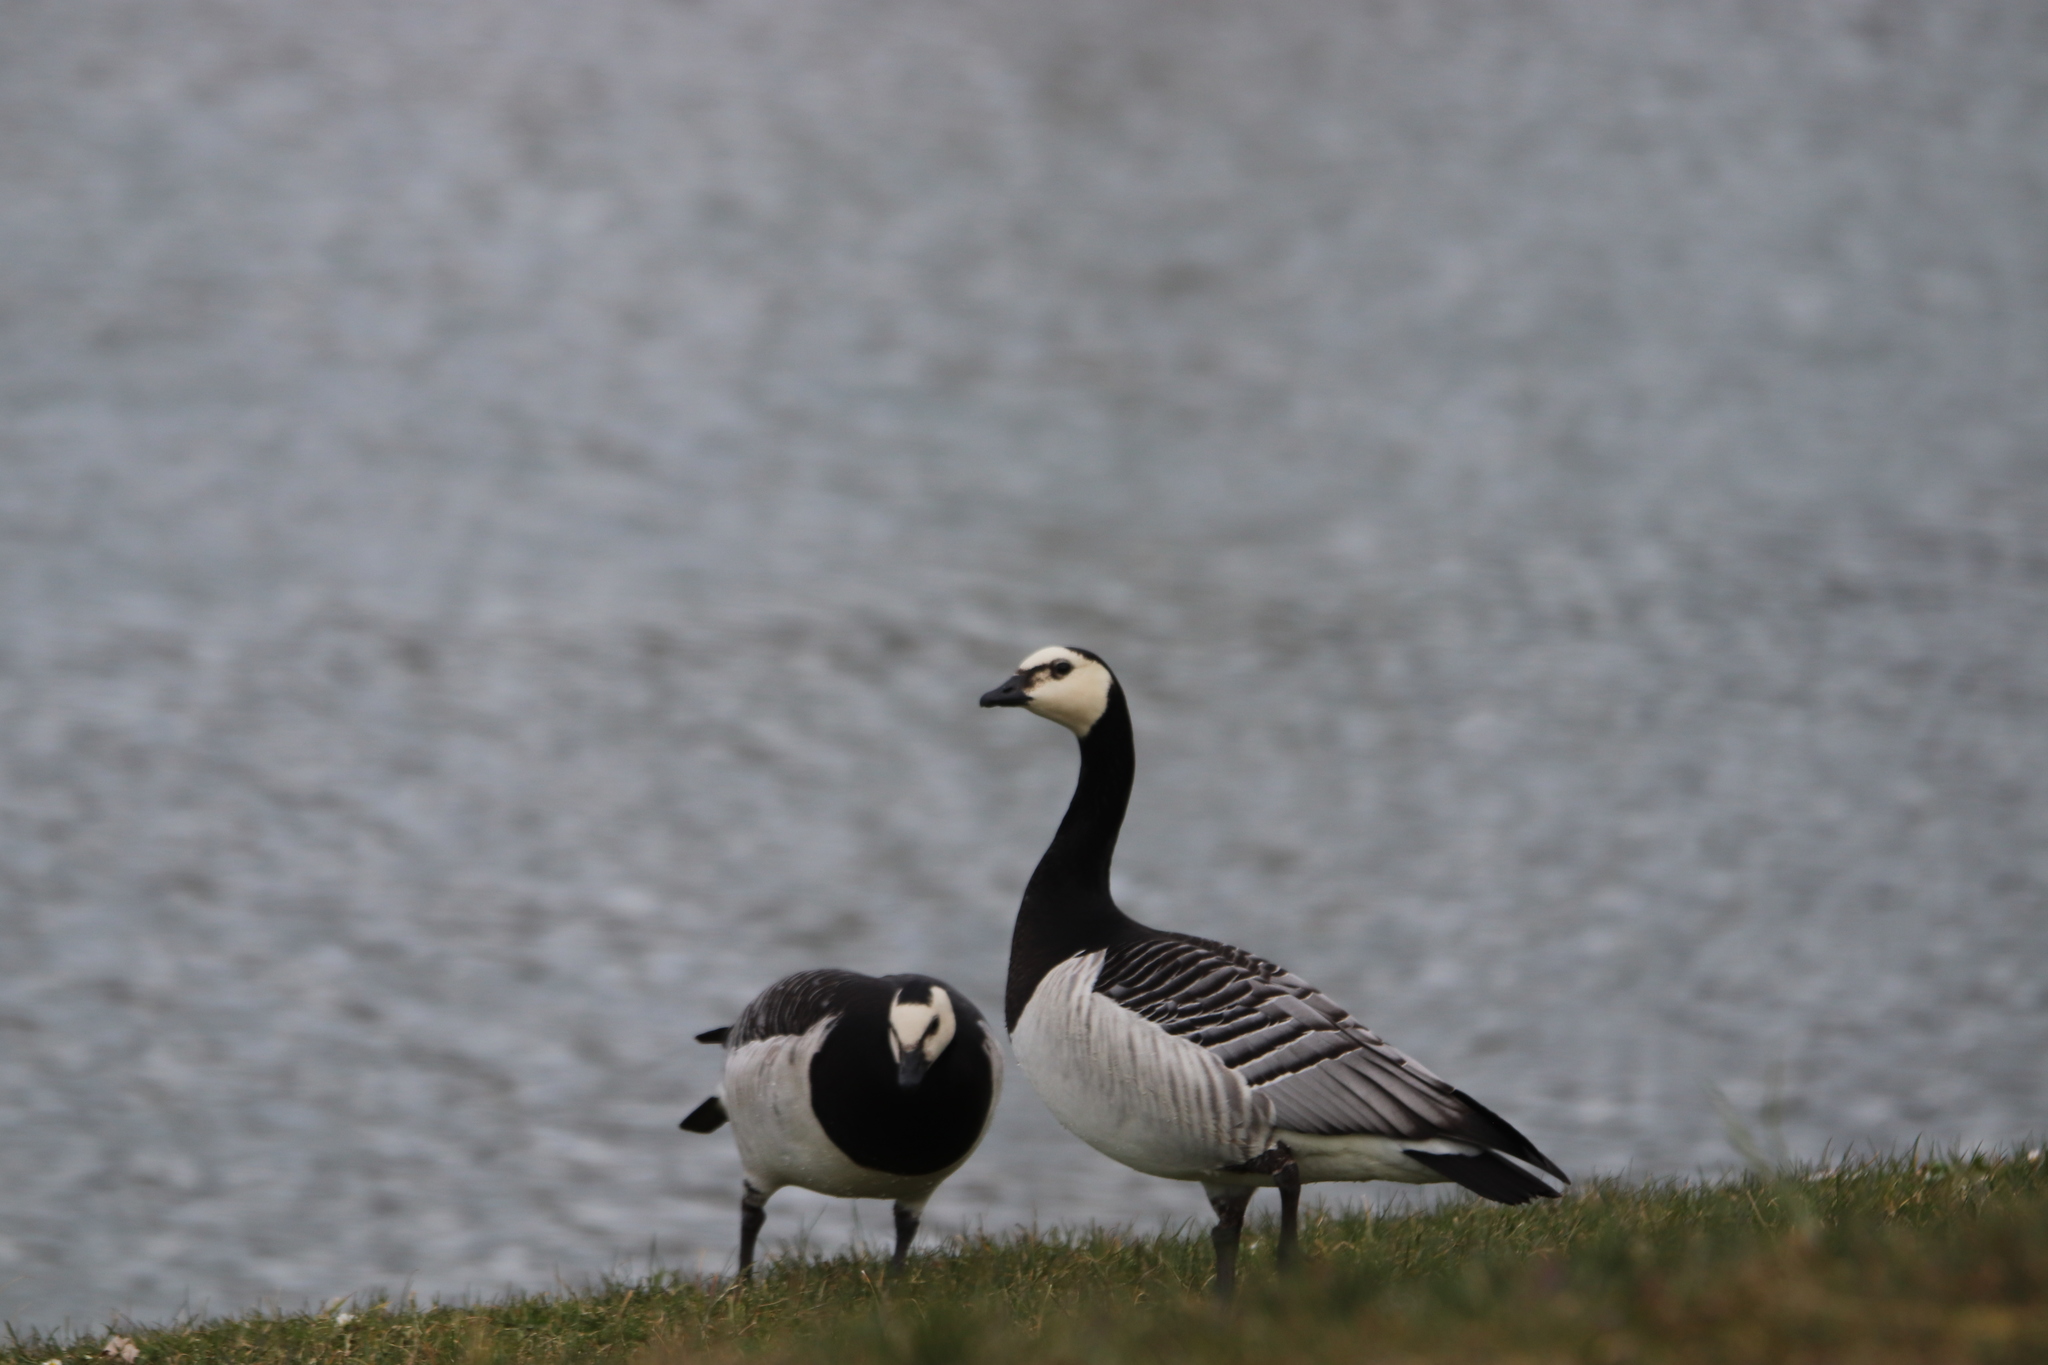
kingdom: Animalia
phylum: Chordata
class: Aves
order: Anseriformes
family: Anatidae
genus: Branta
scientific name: Branta leucopsis
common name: Barnacle goose
